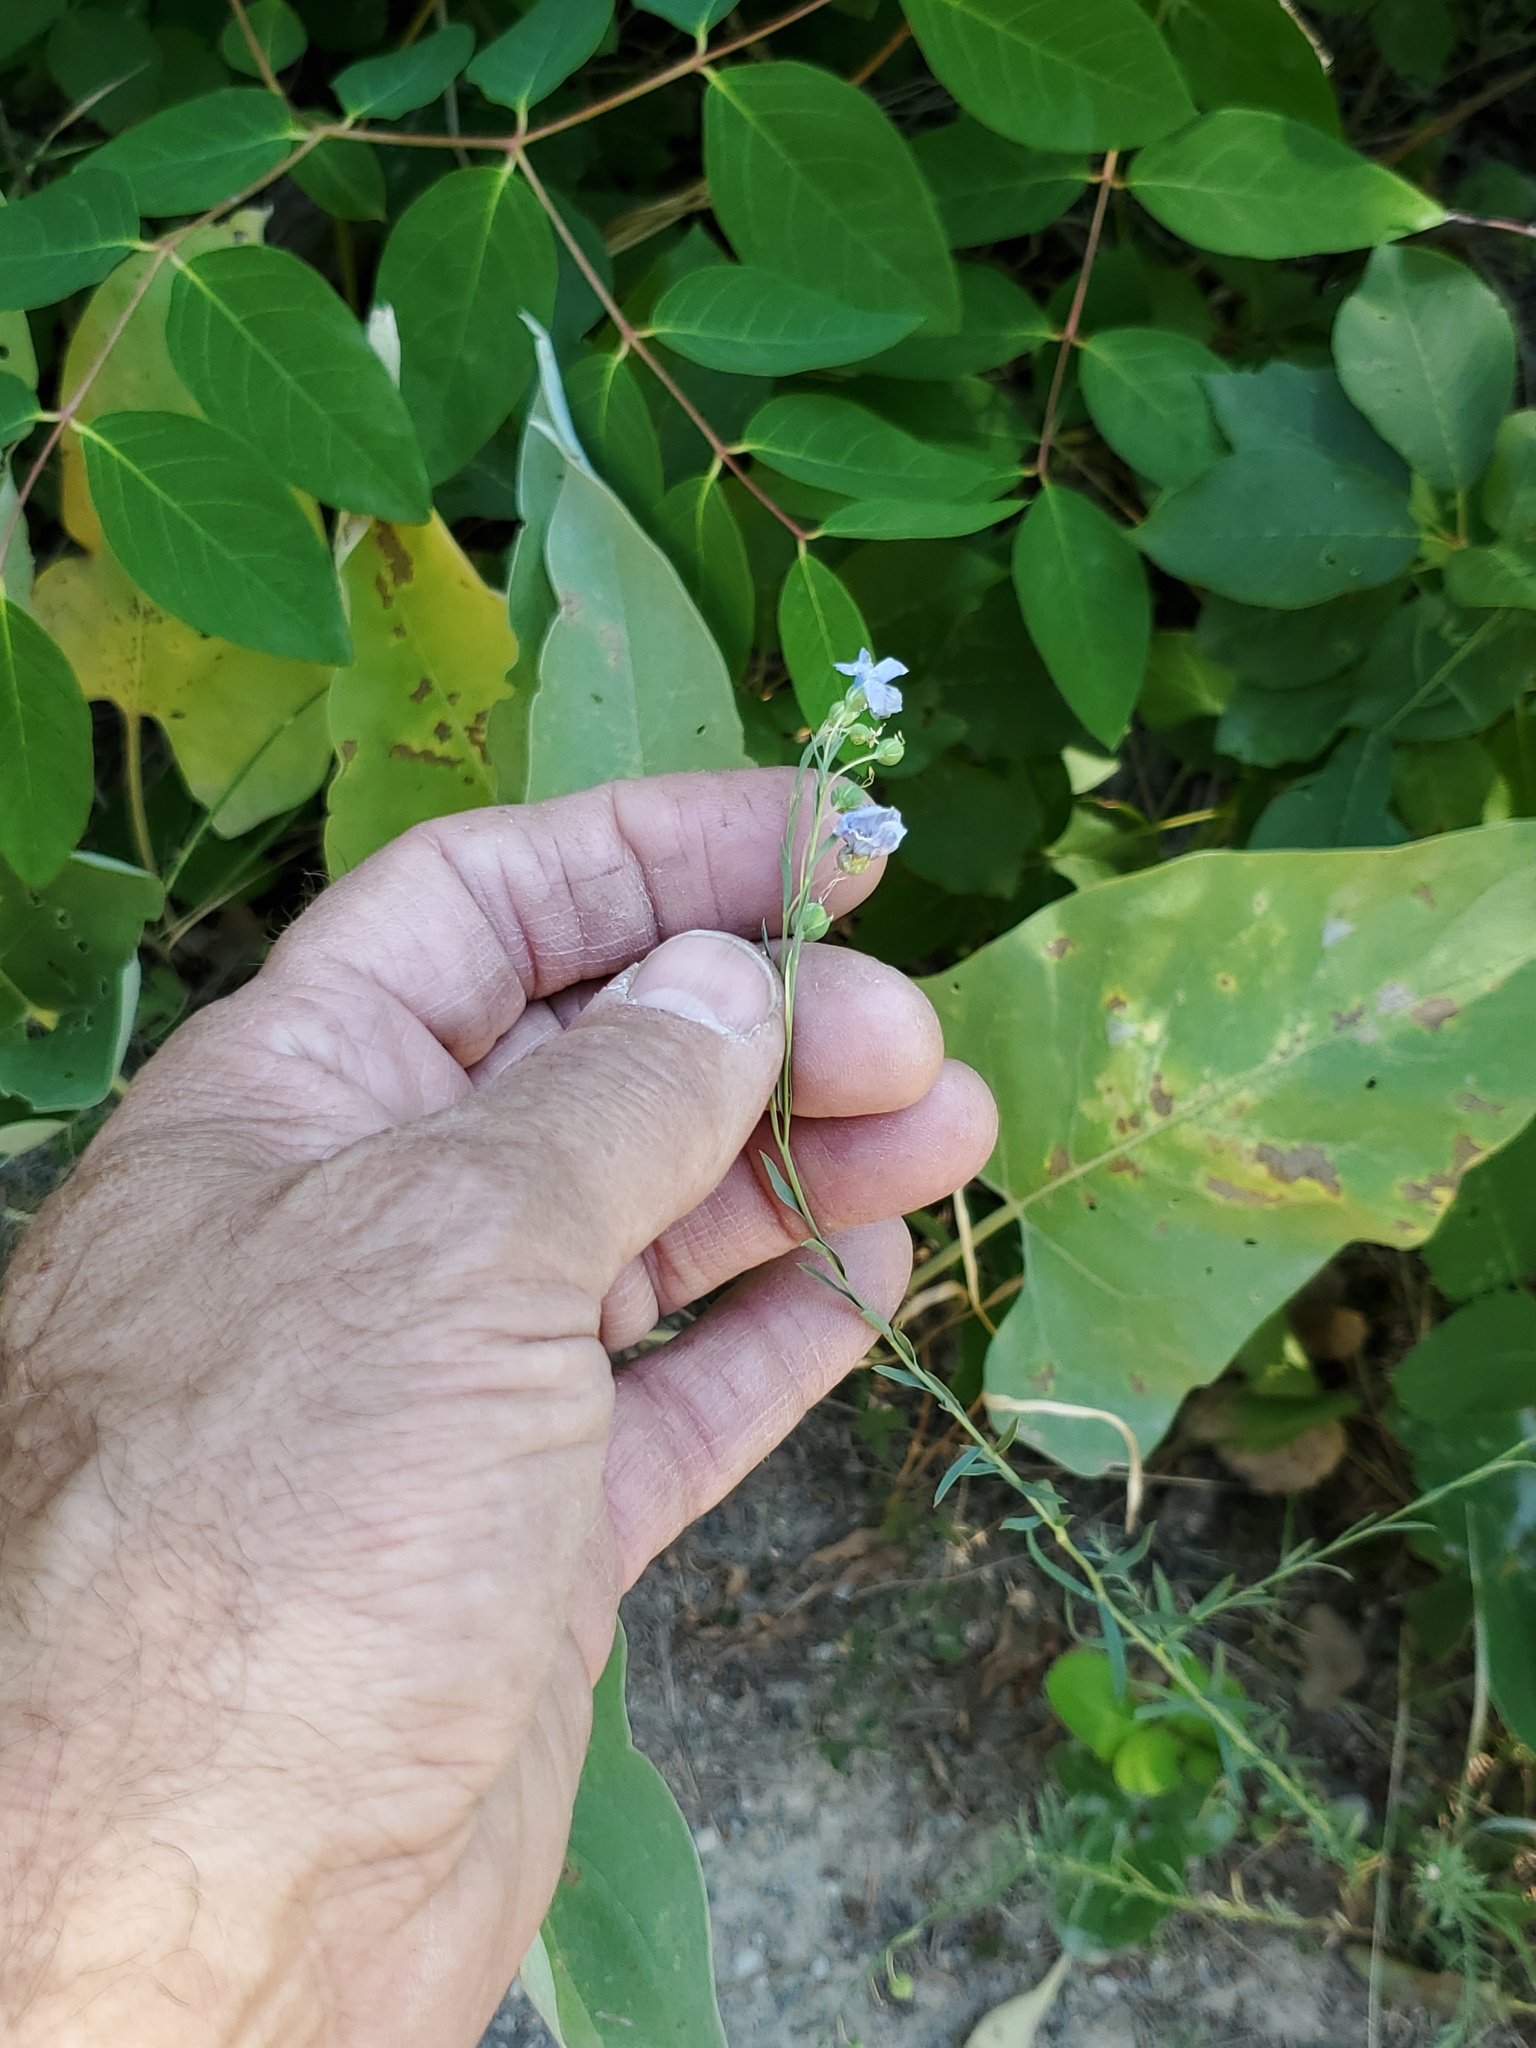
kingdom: Plantae
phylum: Tracheophyta
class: Magnoliopsida
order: Malpighiales
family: Linaceae
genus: Linum
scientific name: Linum lewisii
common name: Prairie flax
